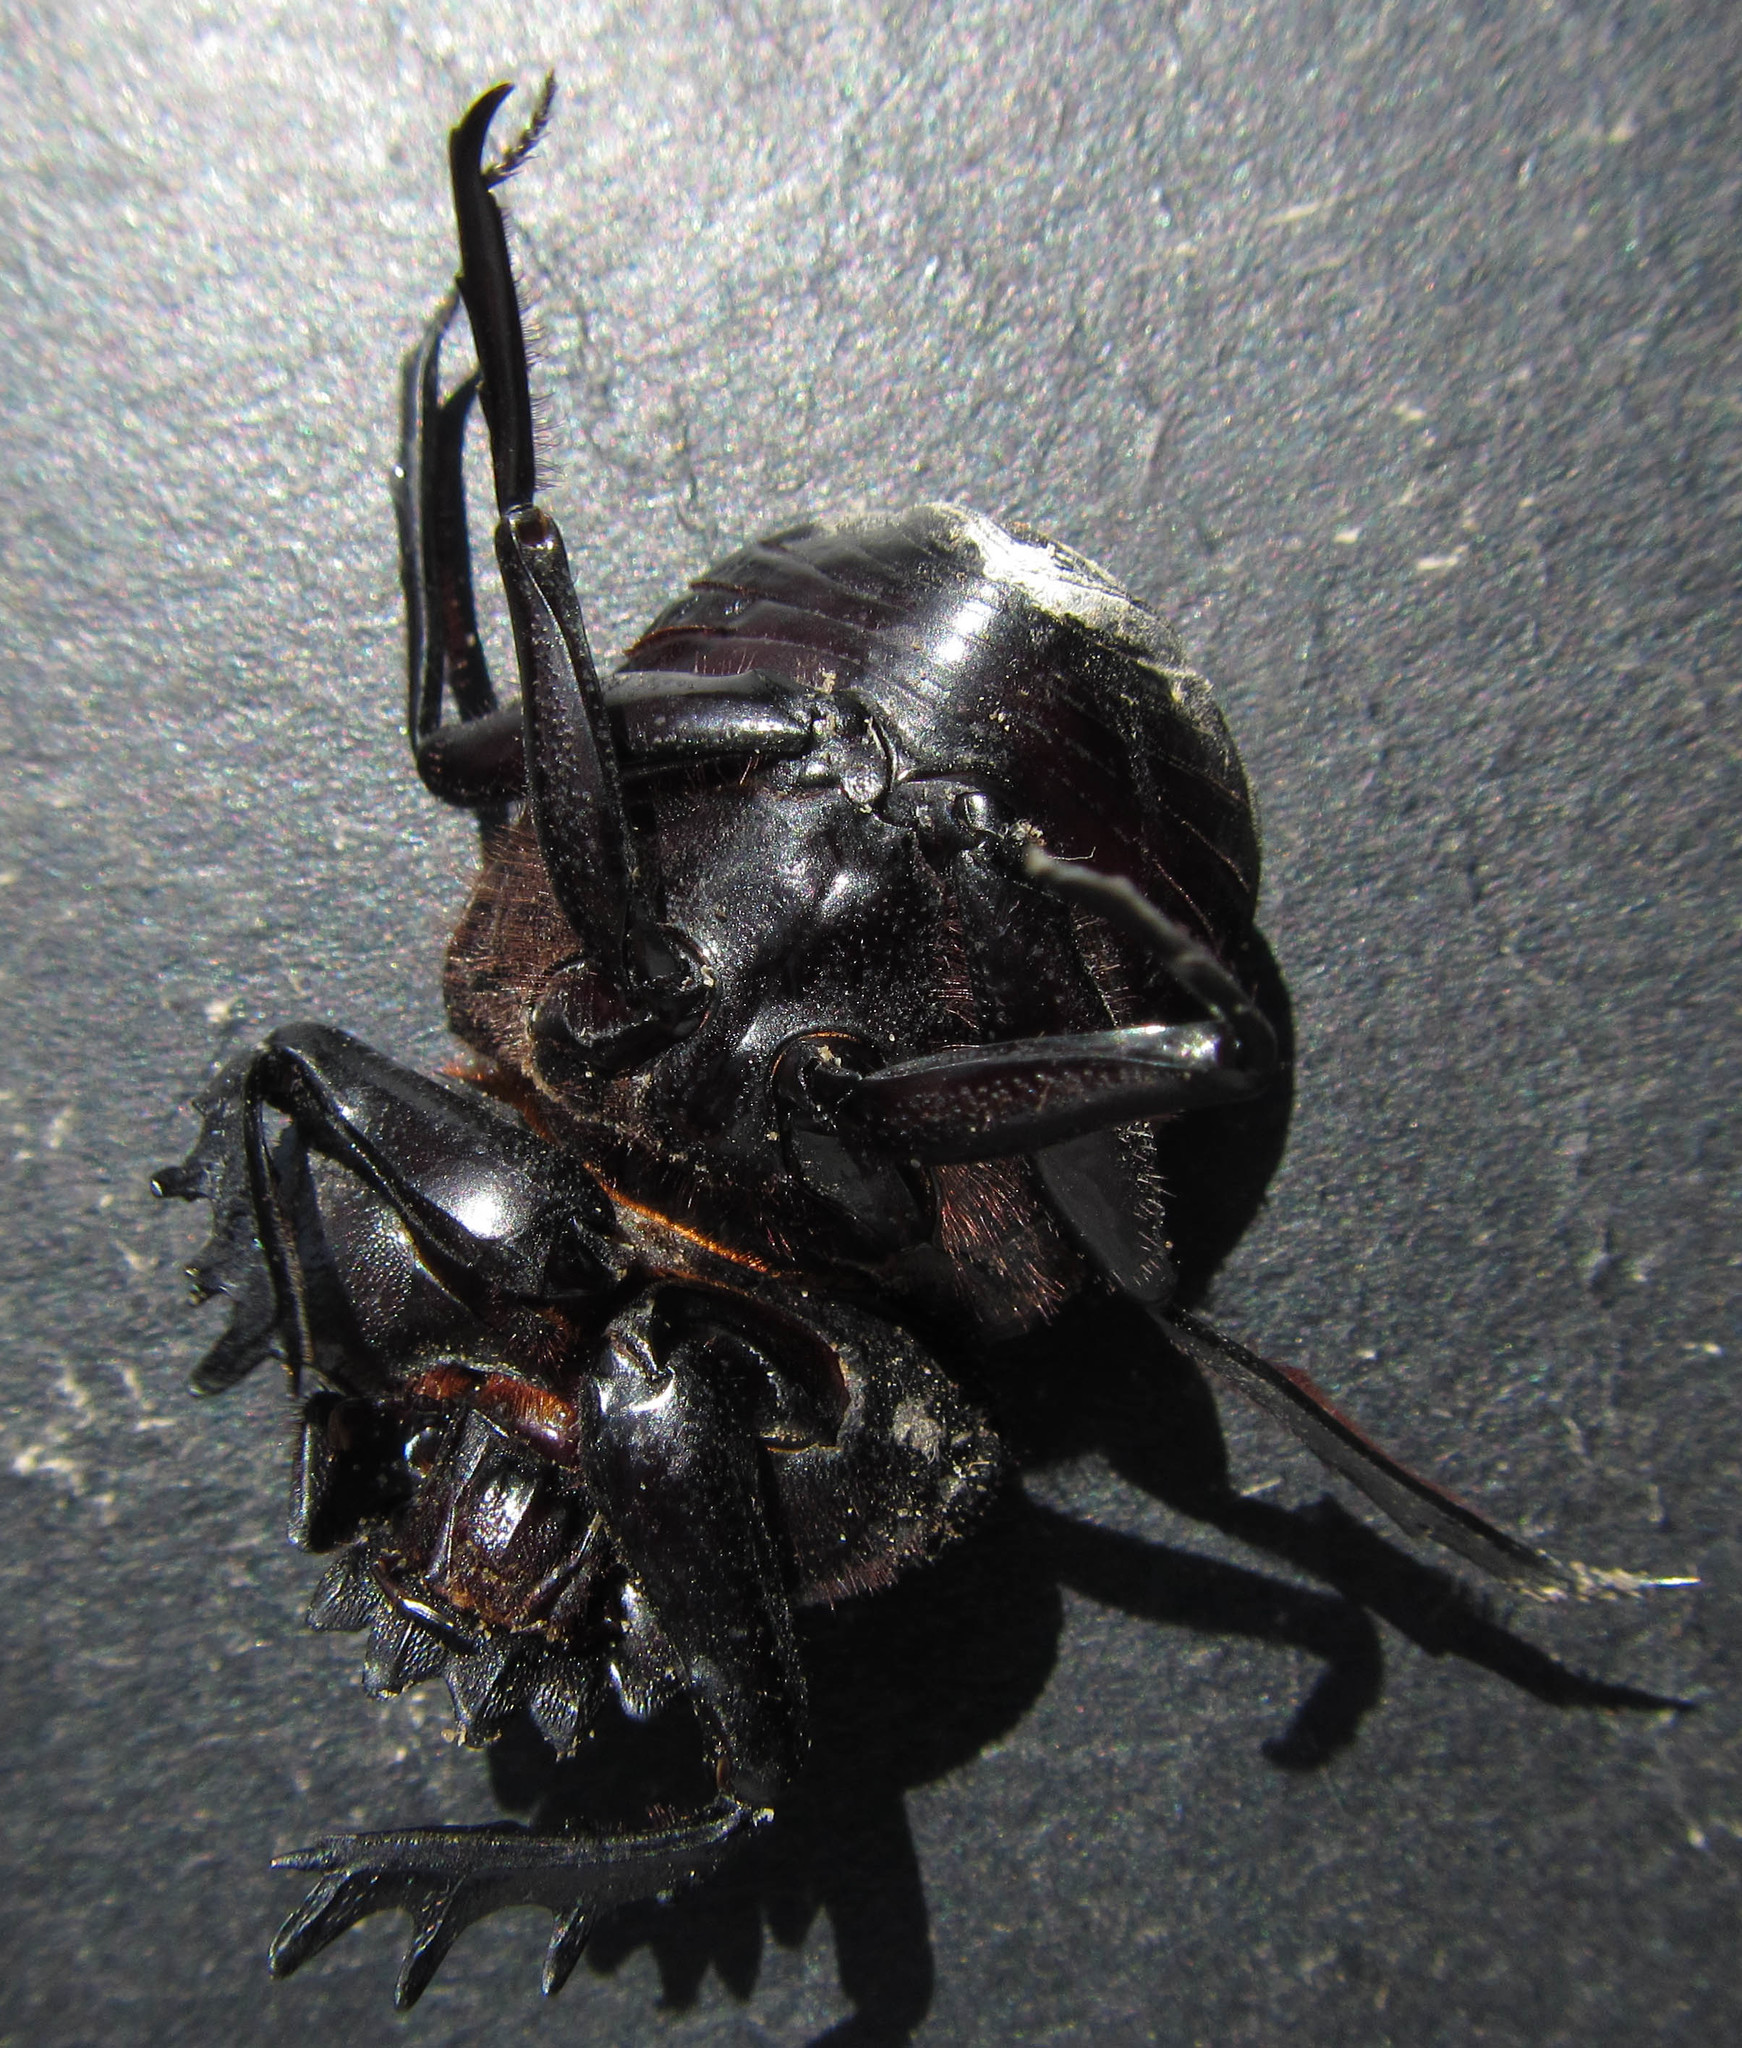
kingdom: Animalia
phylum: Arthropoda
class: Insecta
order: Coleoptera
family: Scarabaeidae
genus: Kheper
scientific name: Kheper prodigiosus
